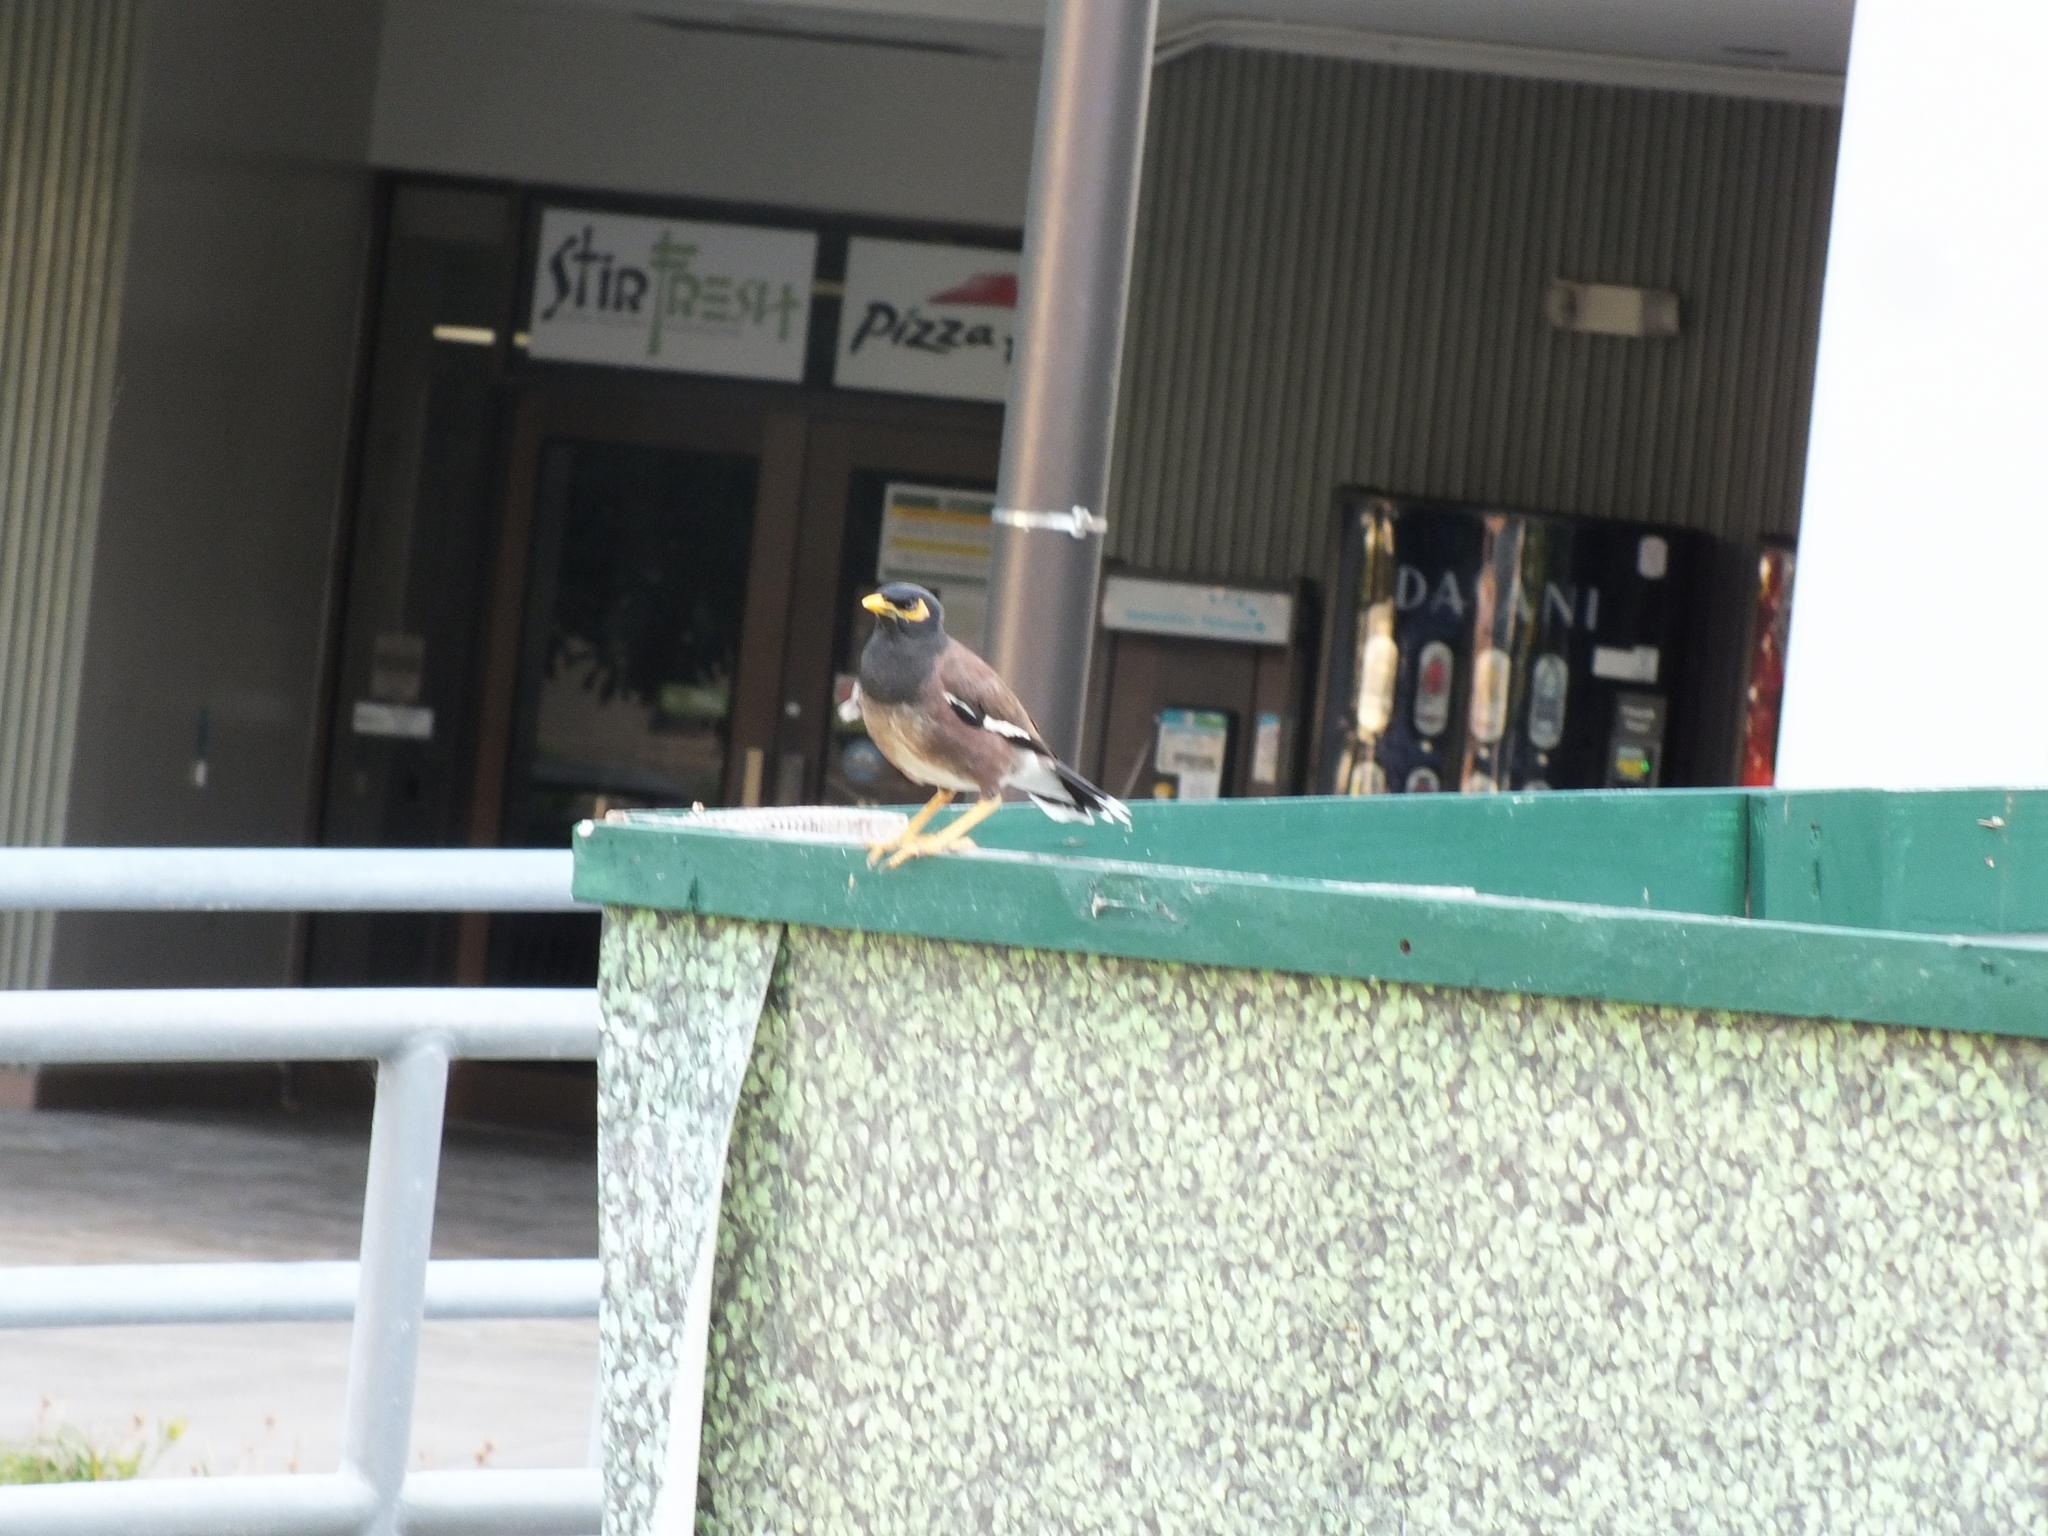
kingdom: Animalia
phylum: Chordata
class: Aves
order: Passeriformes
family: Sturnidae
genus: Acridotheres
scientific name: Acridotheres tristis
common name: Common myna
